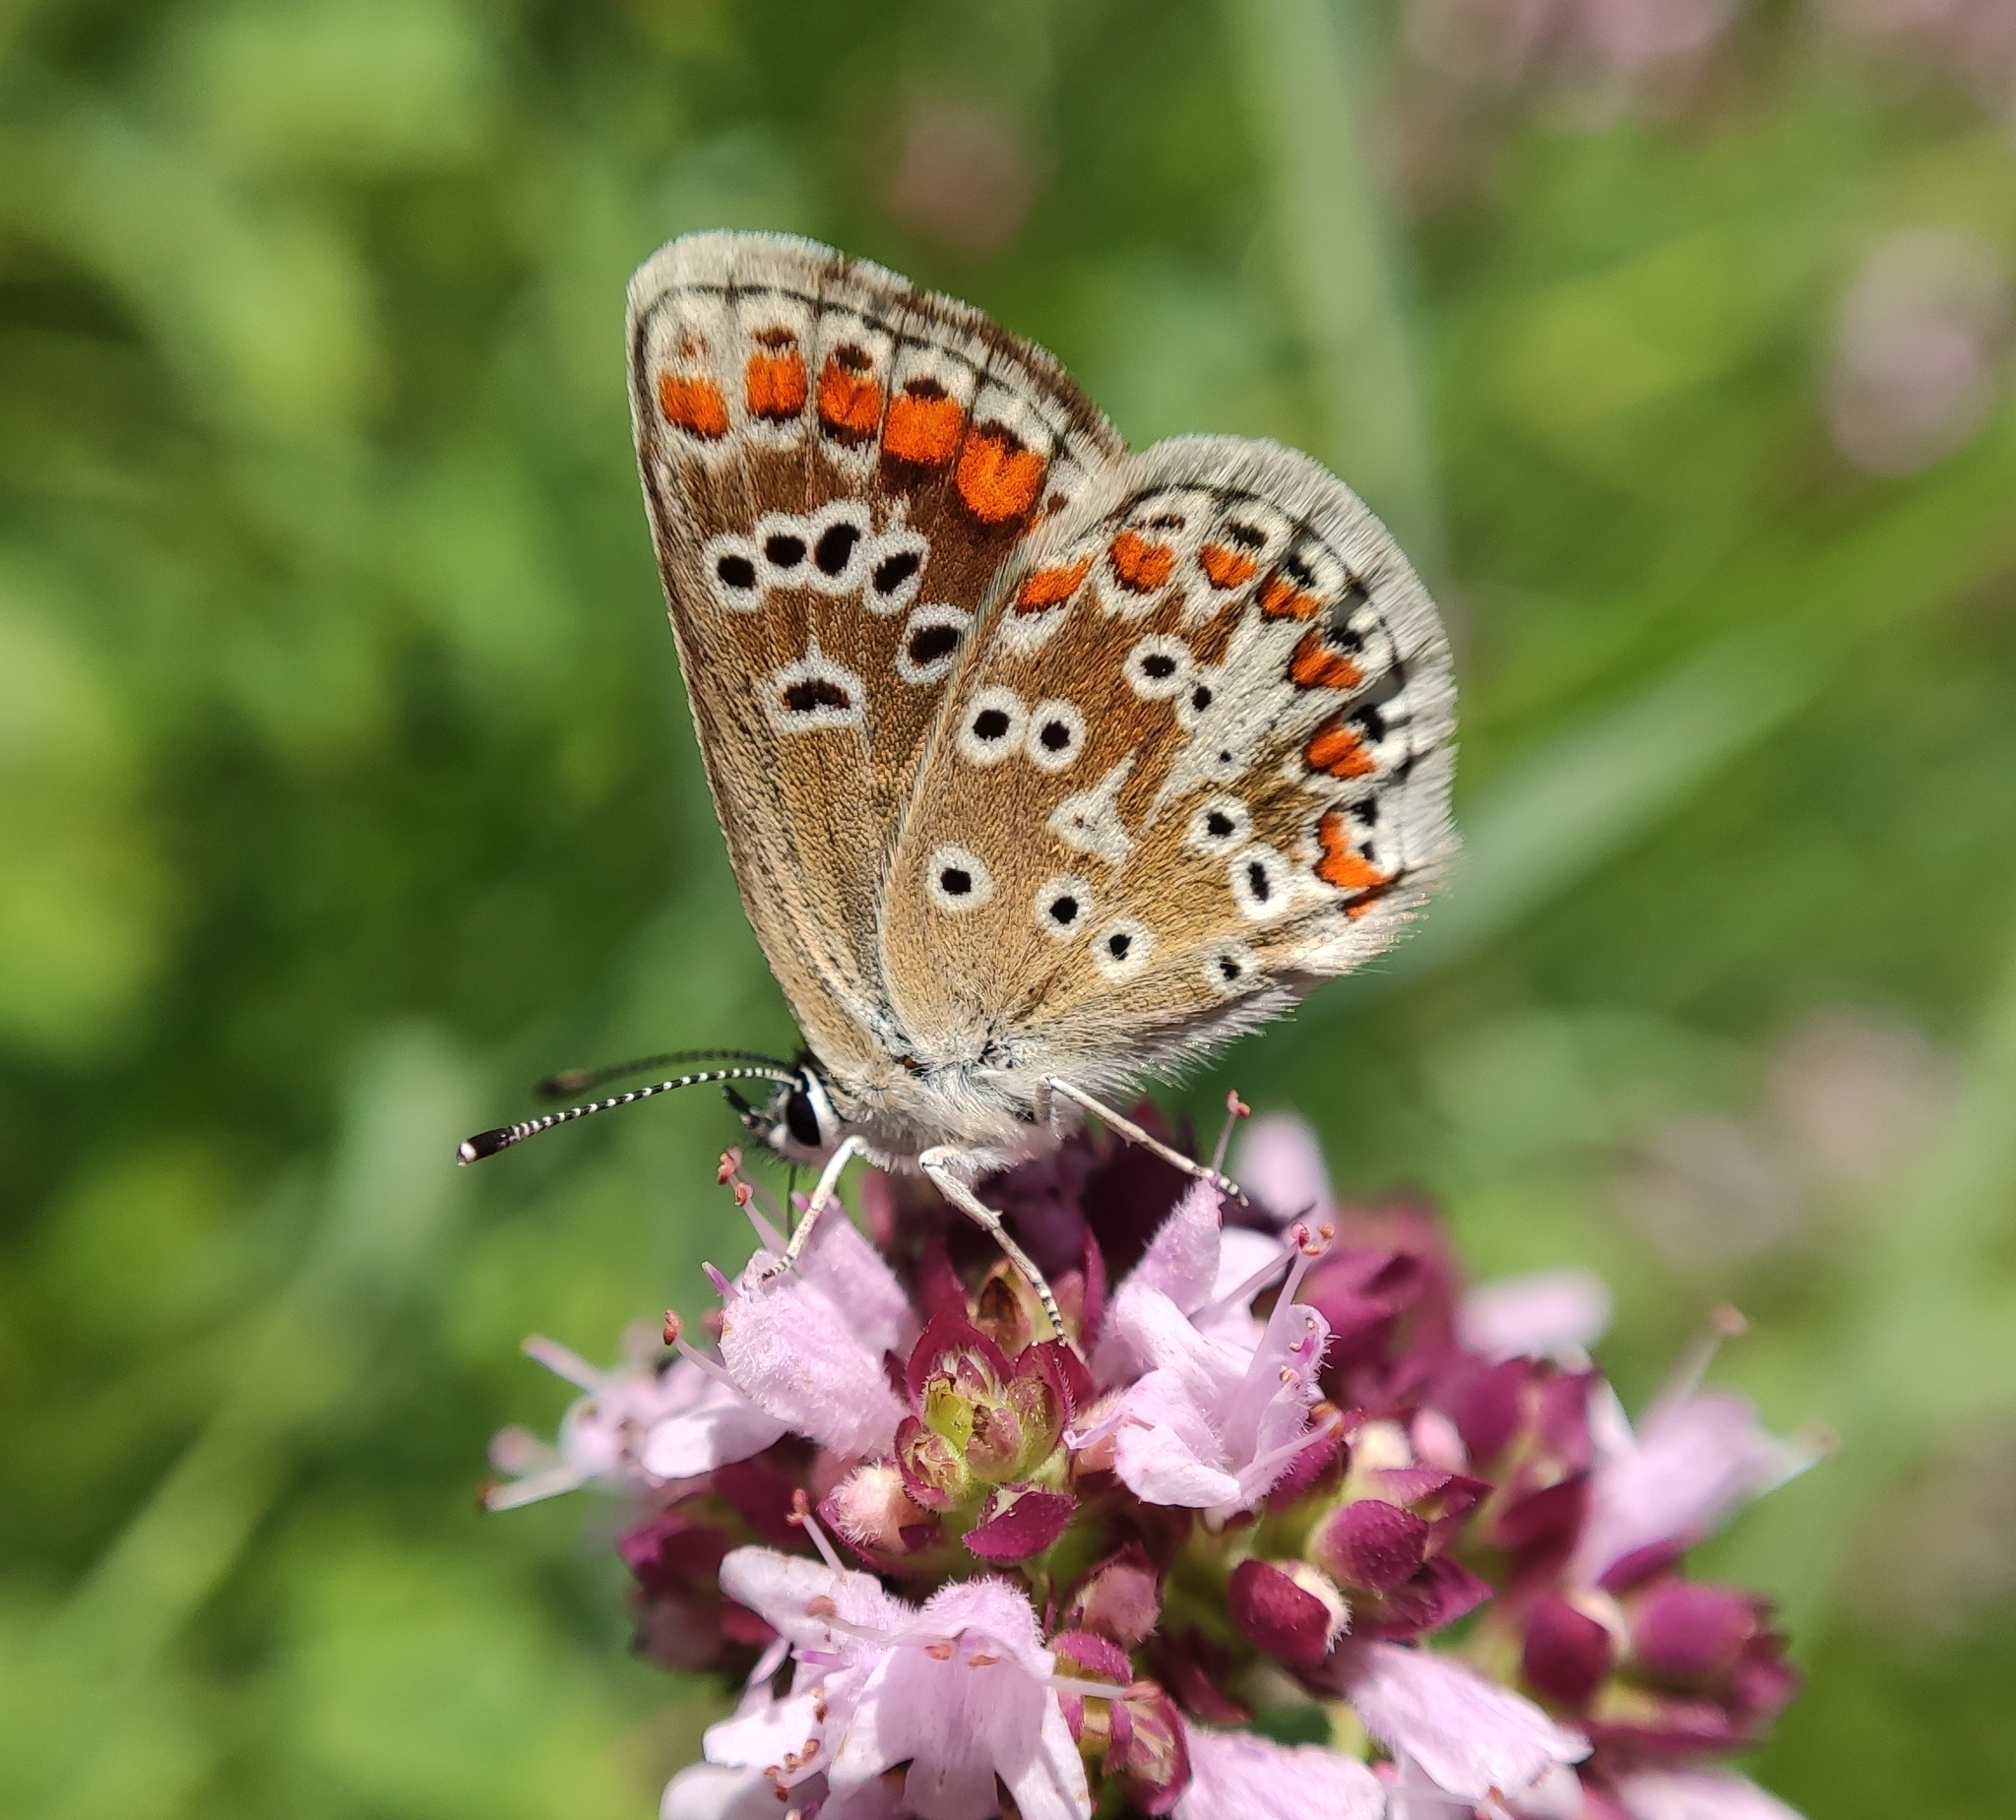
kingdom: Animalia
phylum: Arthropoda
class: Insecta
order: Lepidoptera
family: Lycaenidae
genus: Aricia
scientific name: Aricia agestis
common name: Brown argus
